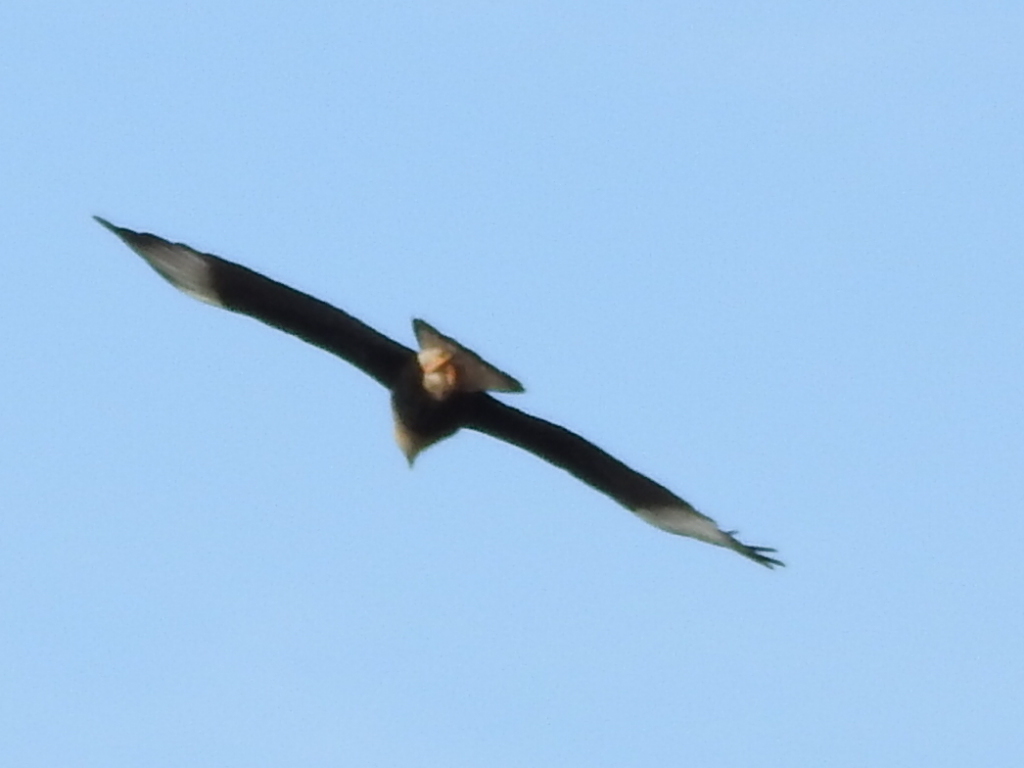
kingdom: Animalia
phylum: Chordata
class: Aves
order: Falconiformes
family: Falconidae
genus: Caracara
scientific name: Caracara plancus
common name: Southern caracara
